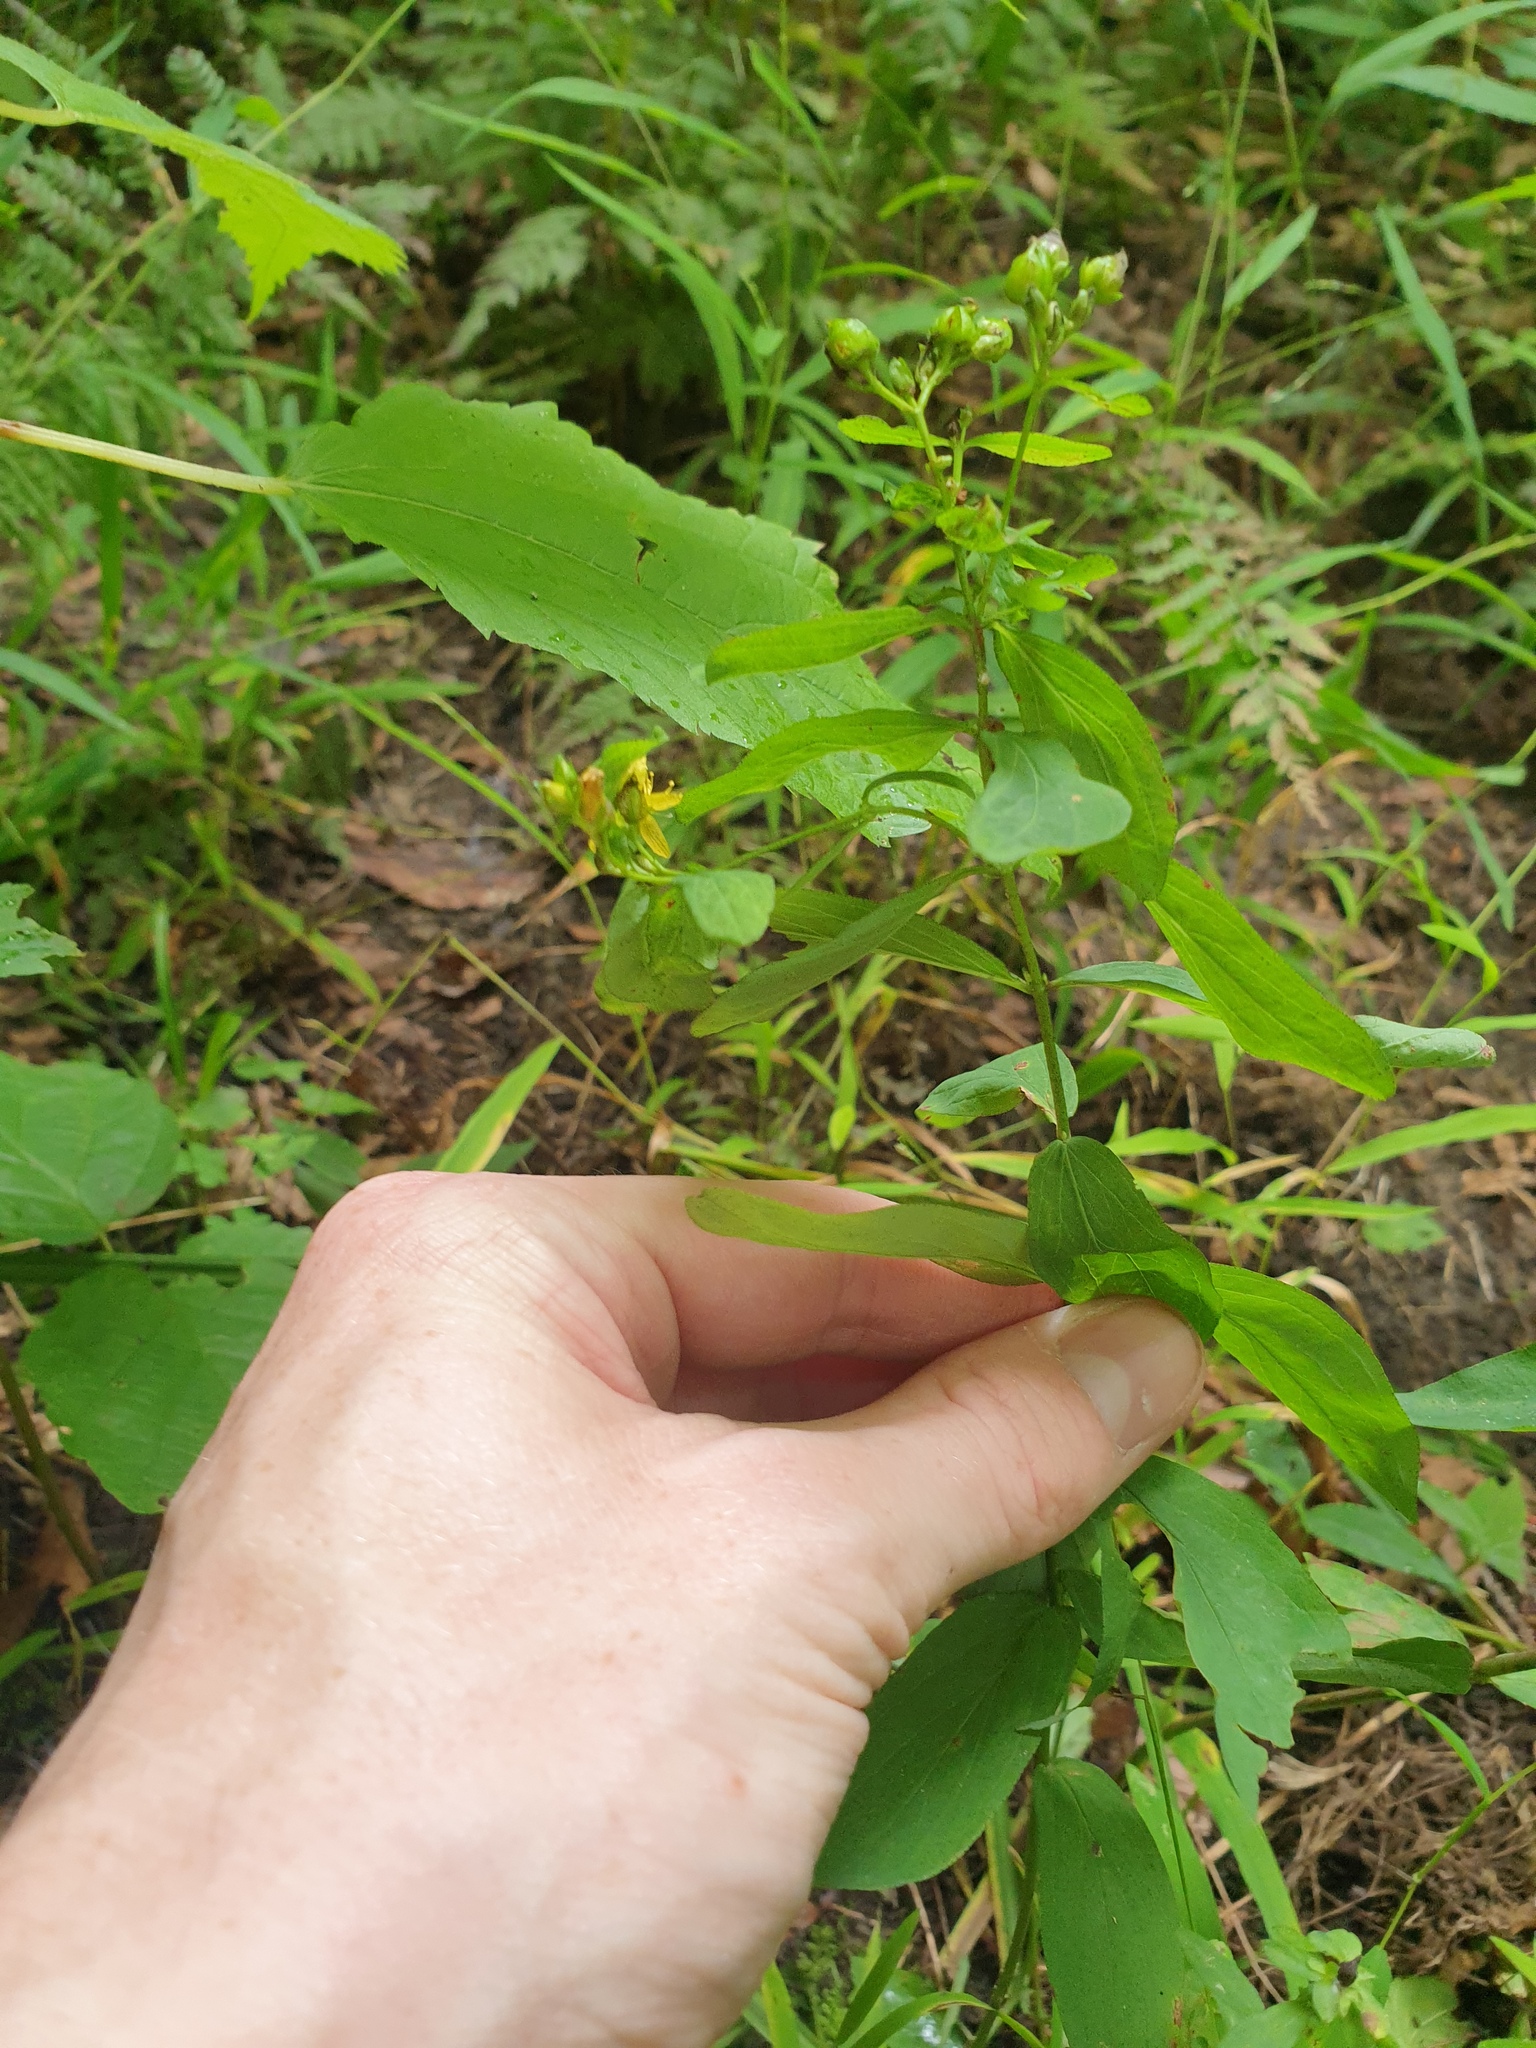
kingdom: Plantae
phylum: Tracheophyta
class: Magnoliopsida
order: Malpighiales
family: Hypericaceae
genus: Hypericum
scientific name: Hypericum punctatum
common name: Spotted st. john's-wort
